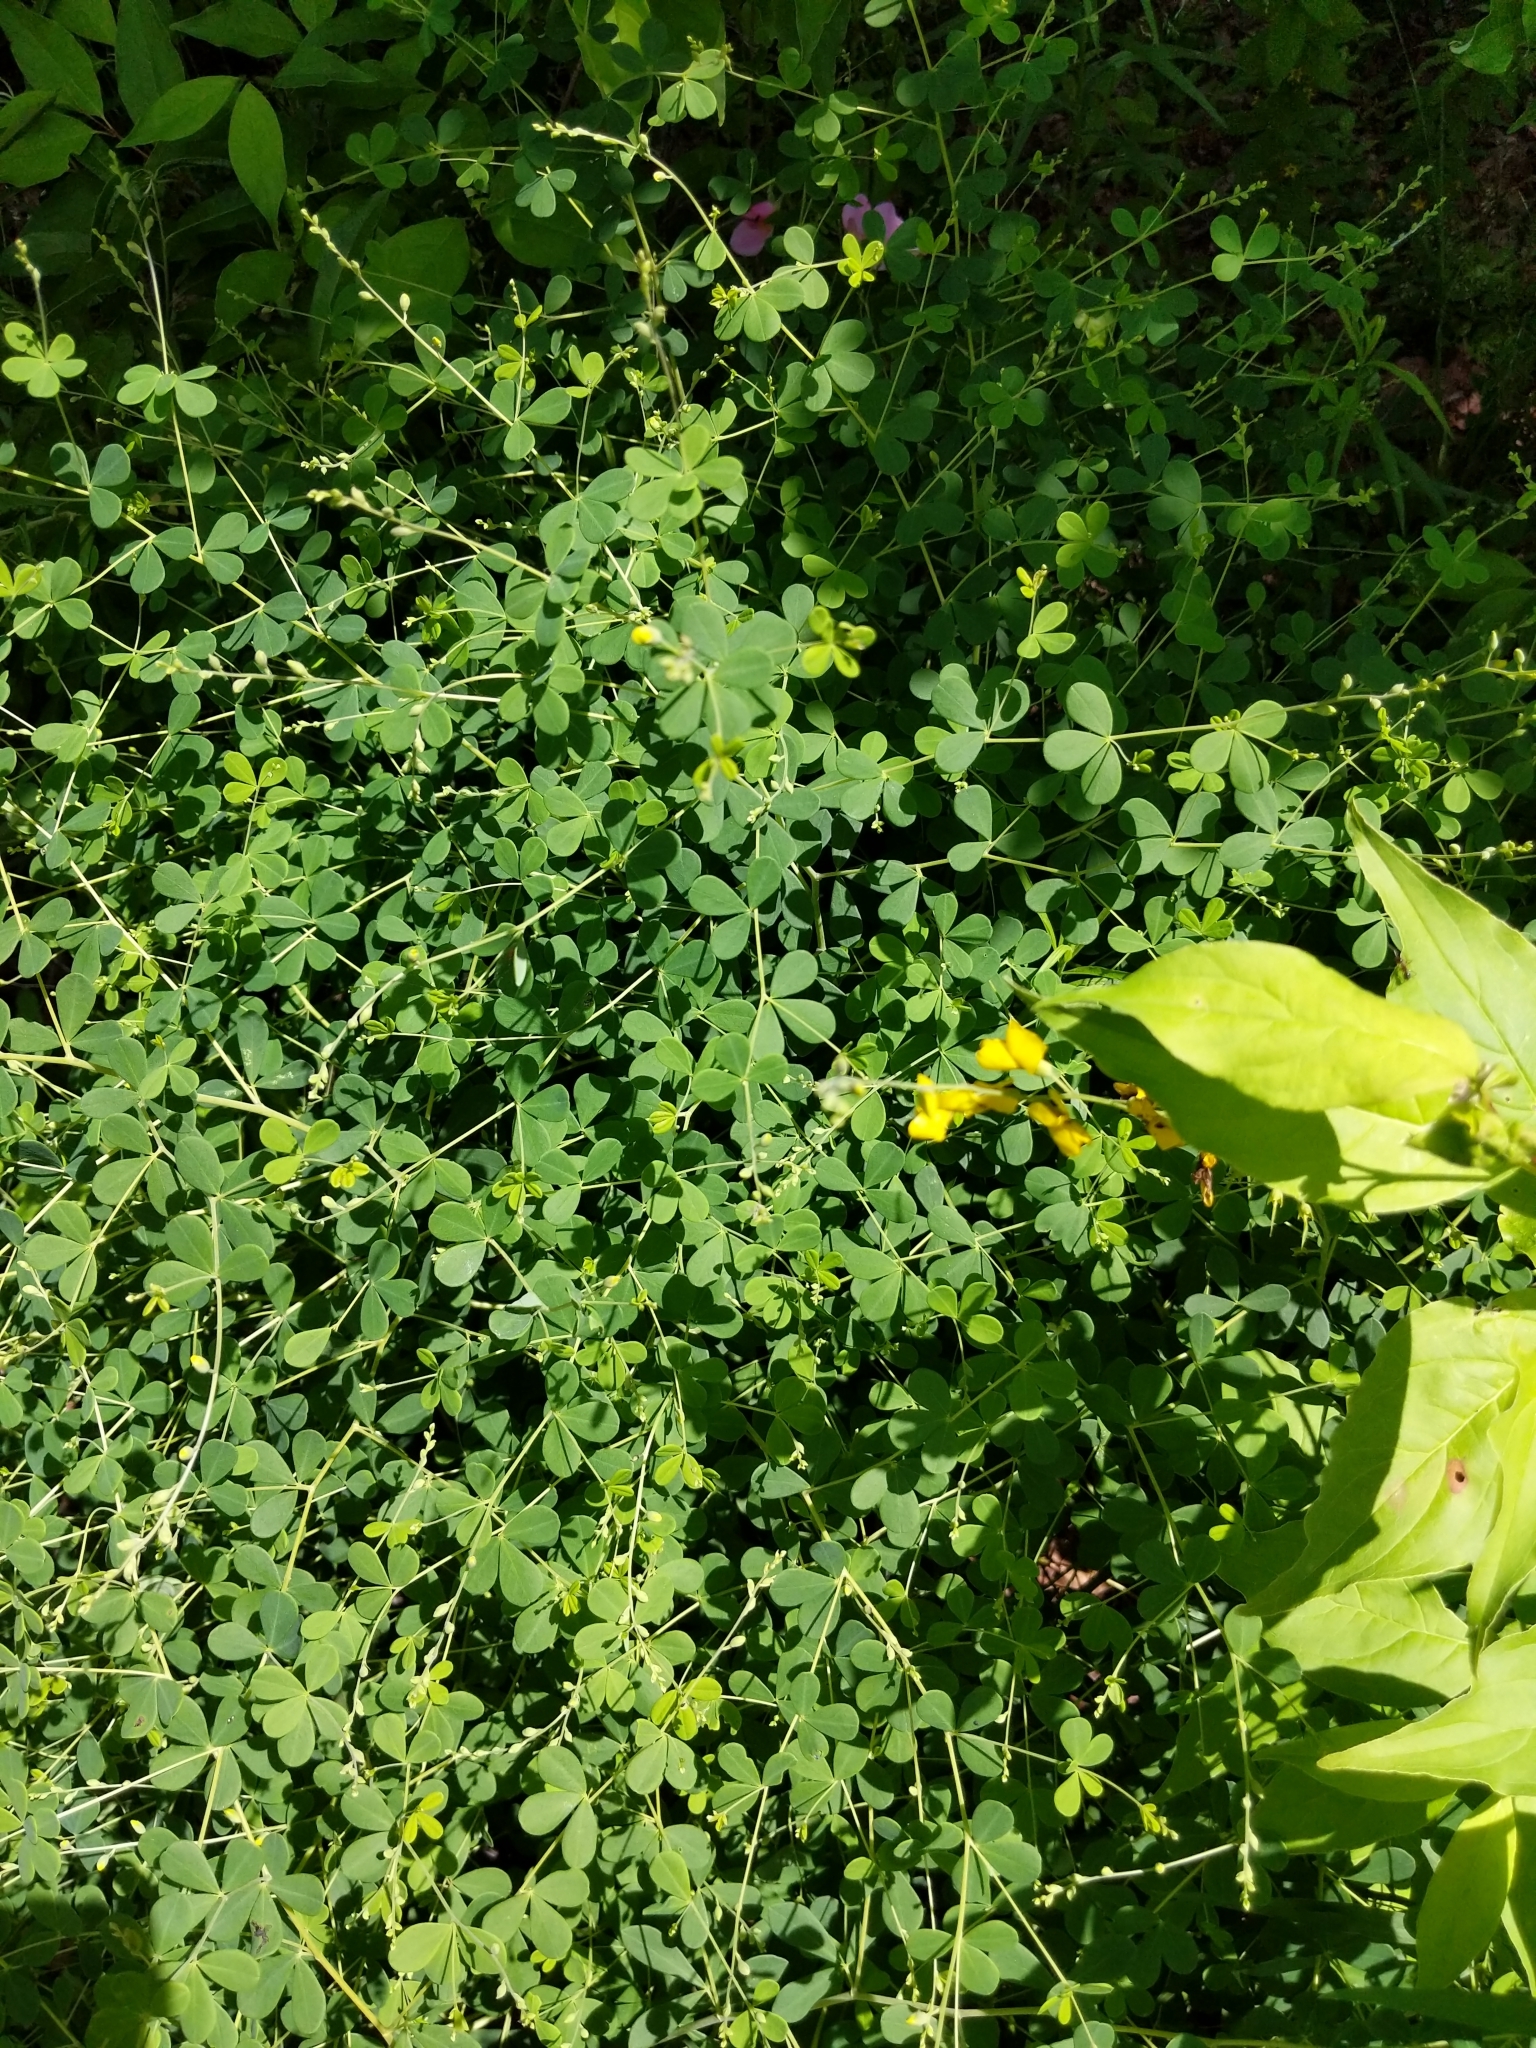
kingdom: Plantae
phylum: Tracheophyta
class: Magnoliopsida
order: Fabales
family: Fabaceae
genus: Baptisia
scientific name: Baptisia tinctoria
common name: Wild indigo
